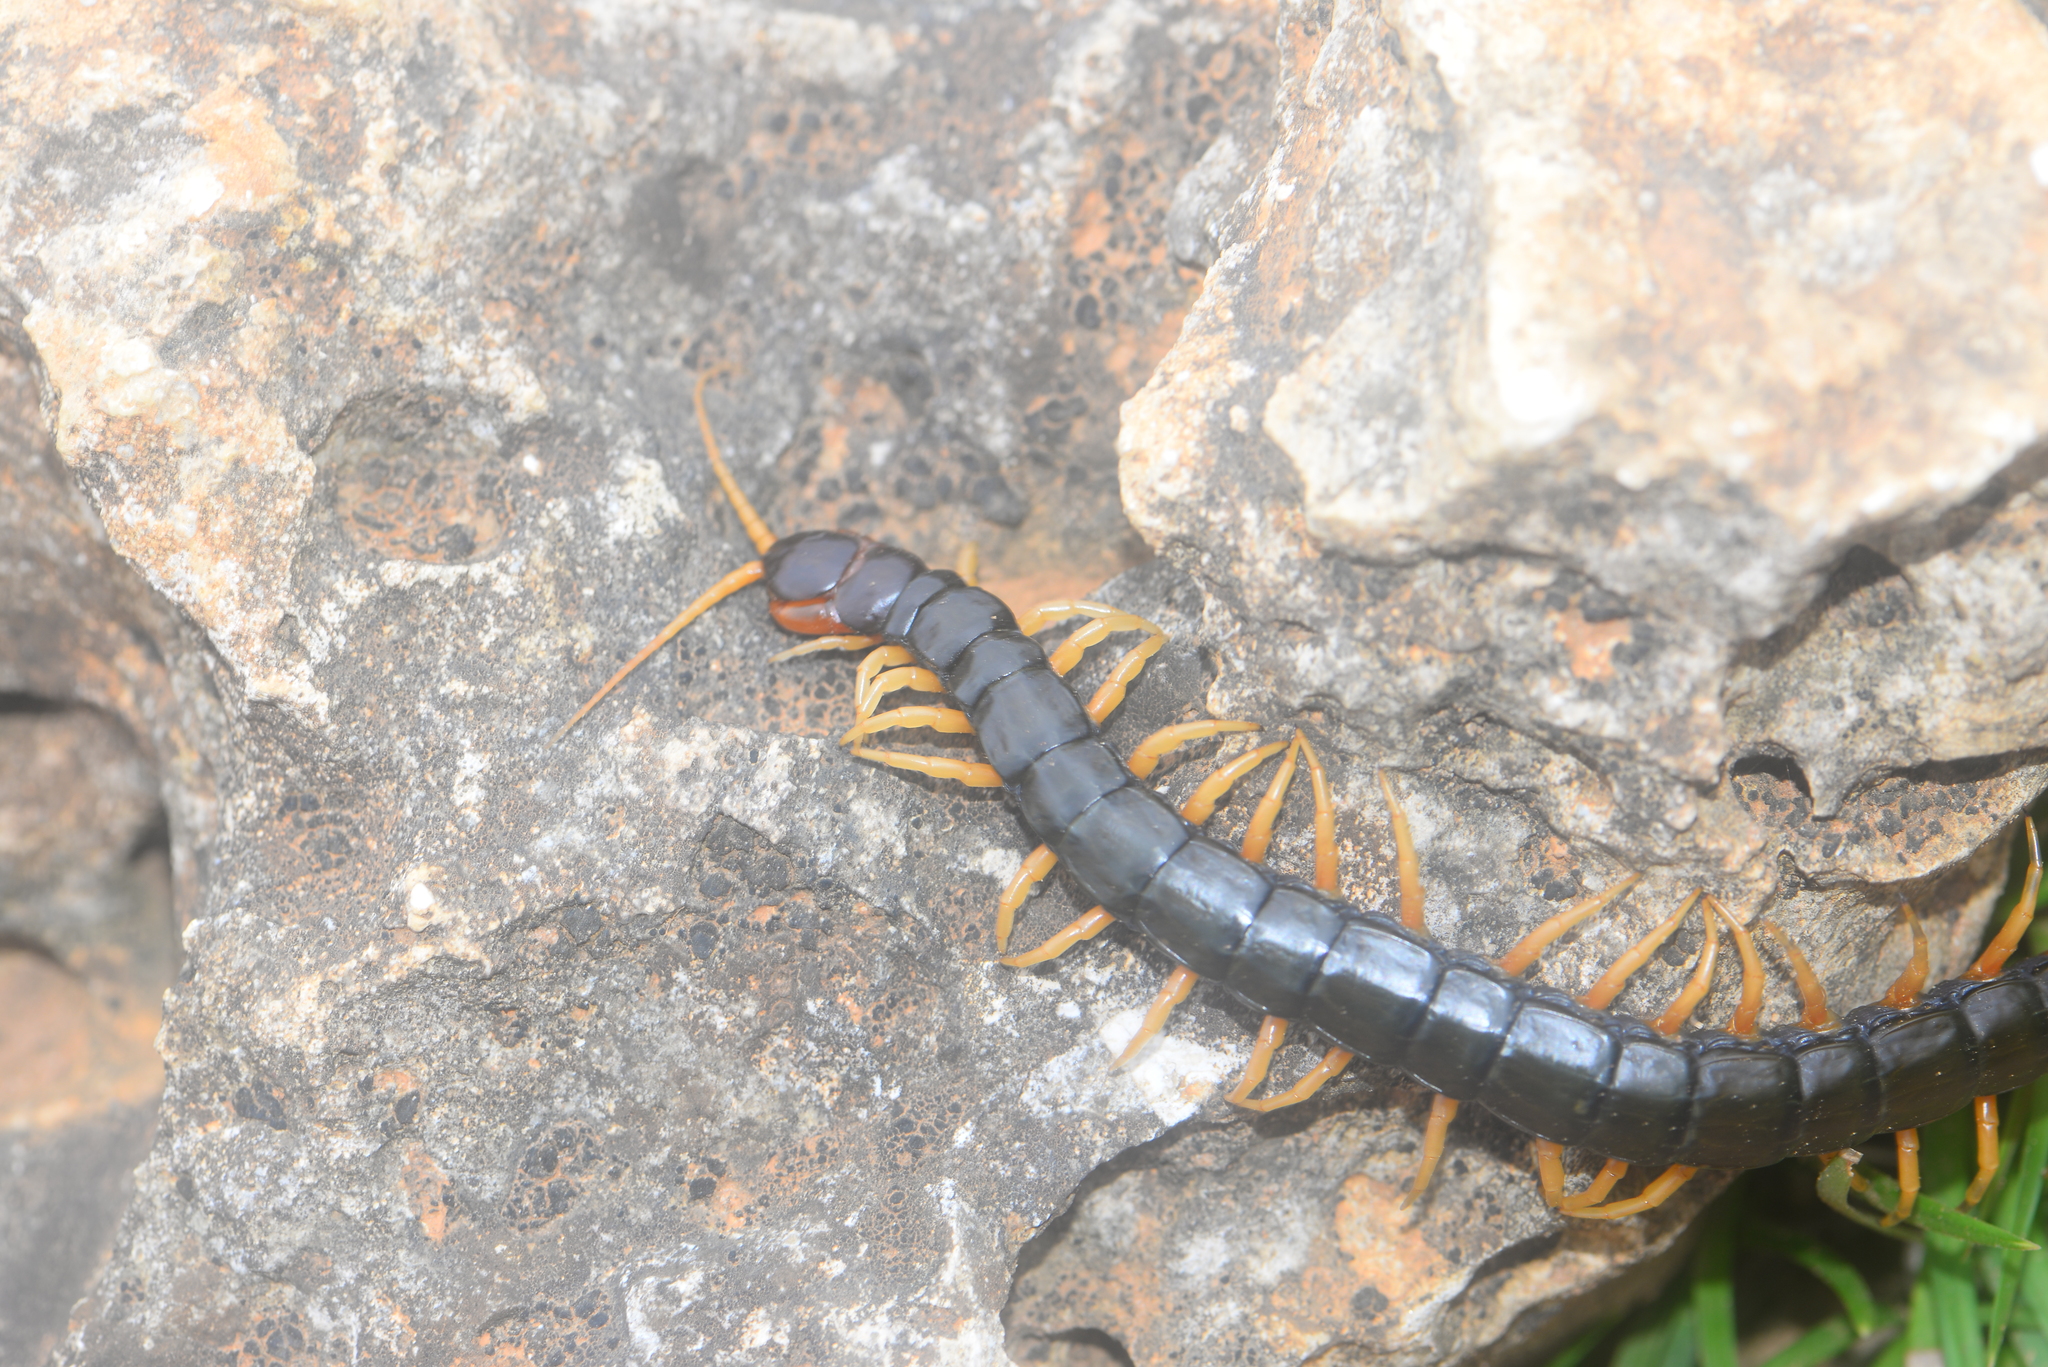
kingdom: Animalia
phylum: Arthropoda
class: Chilopoda
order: Scolopendromorpha
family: Scolopendridae
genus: Scolopendra
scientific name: Scolopendra mutilans
